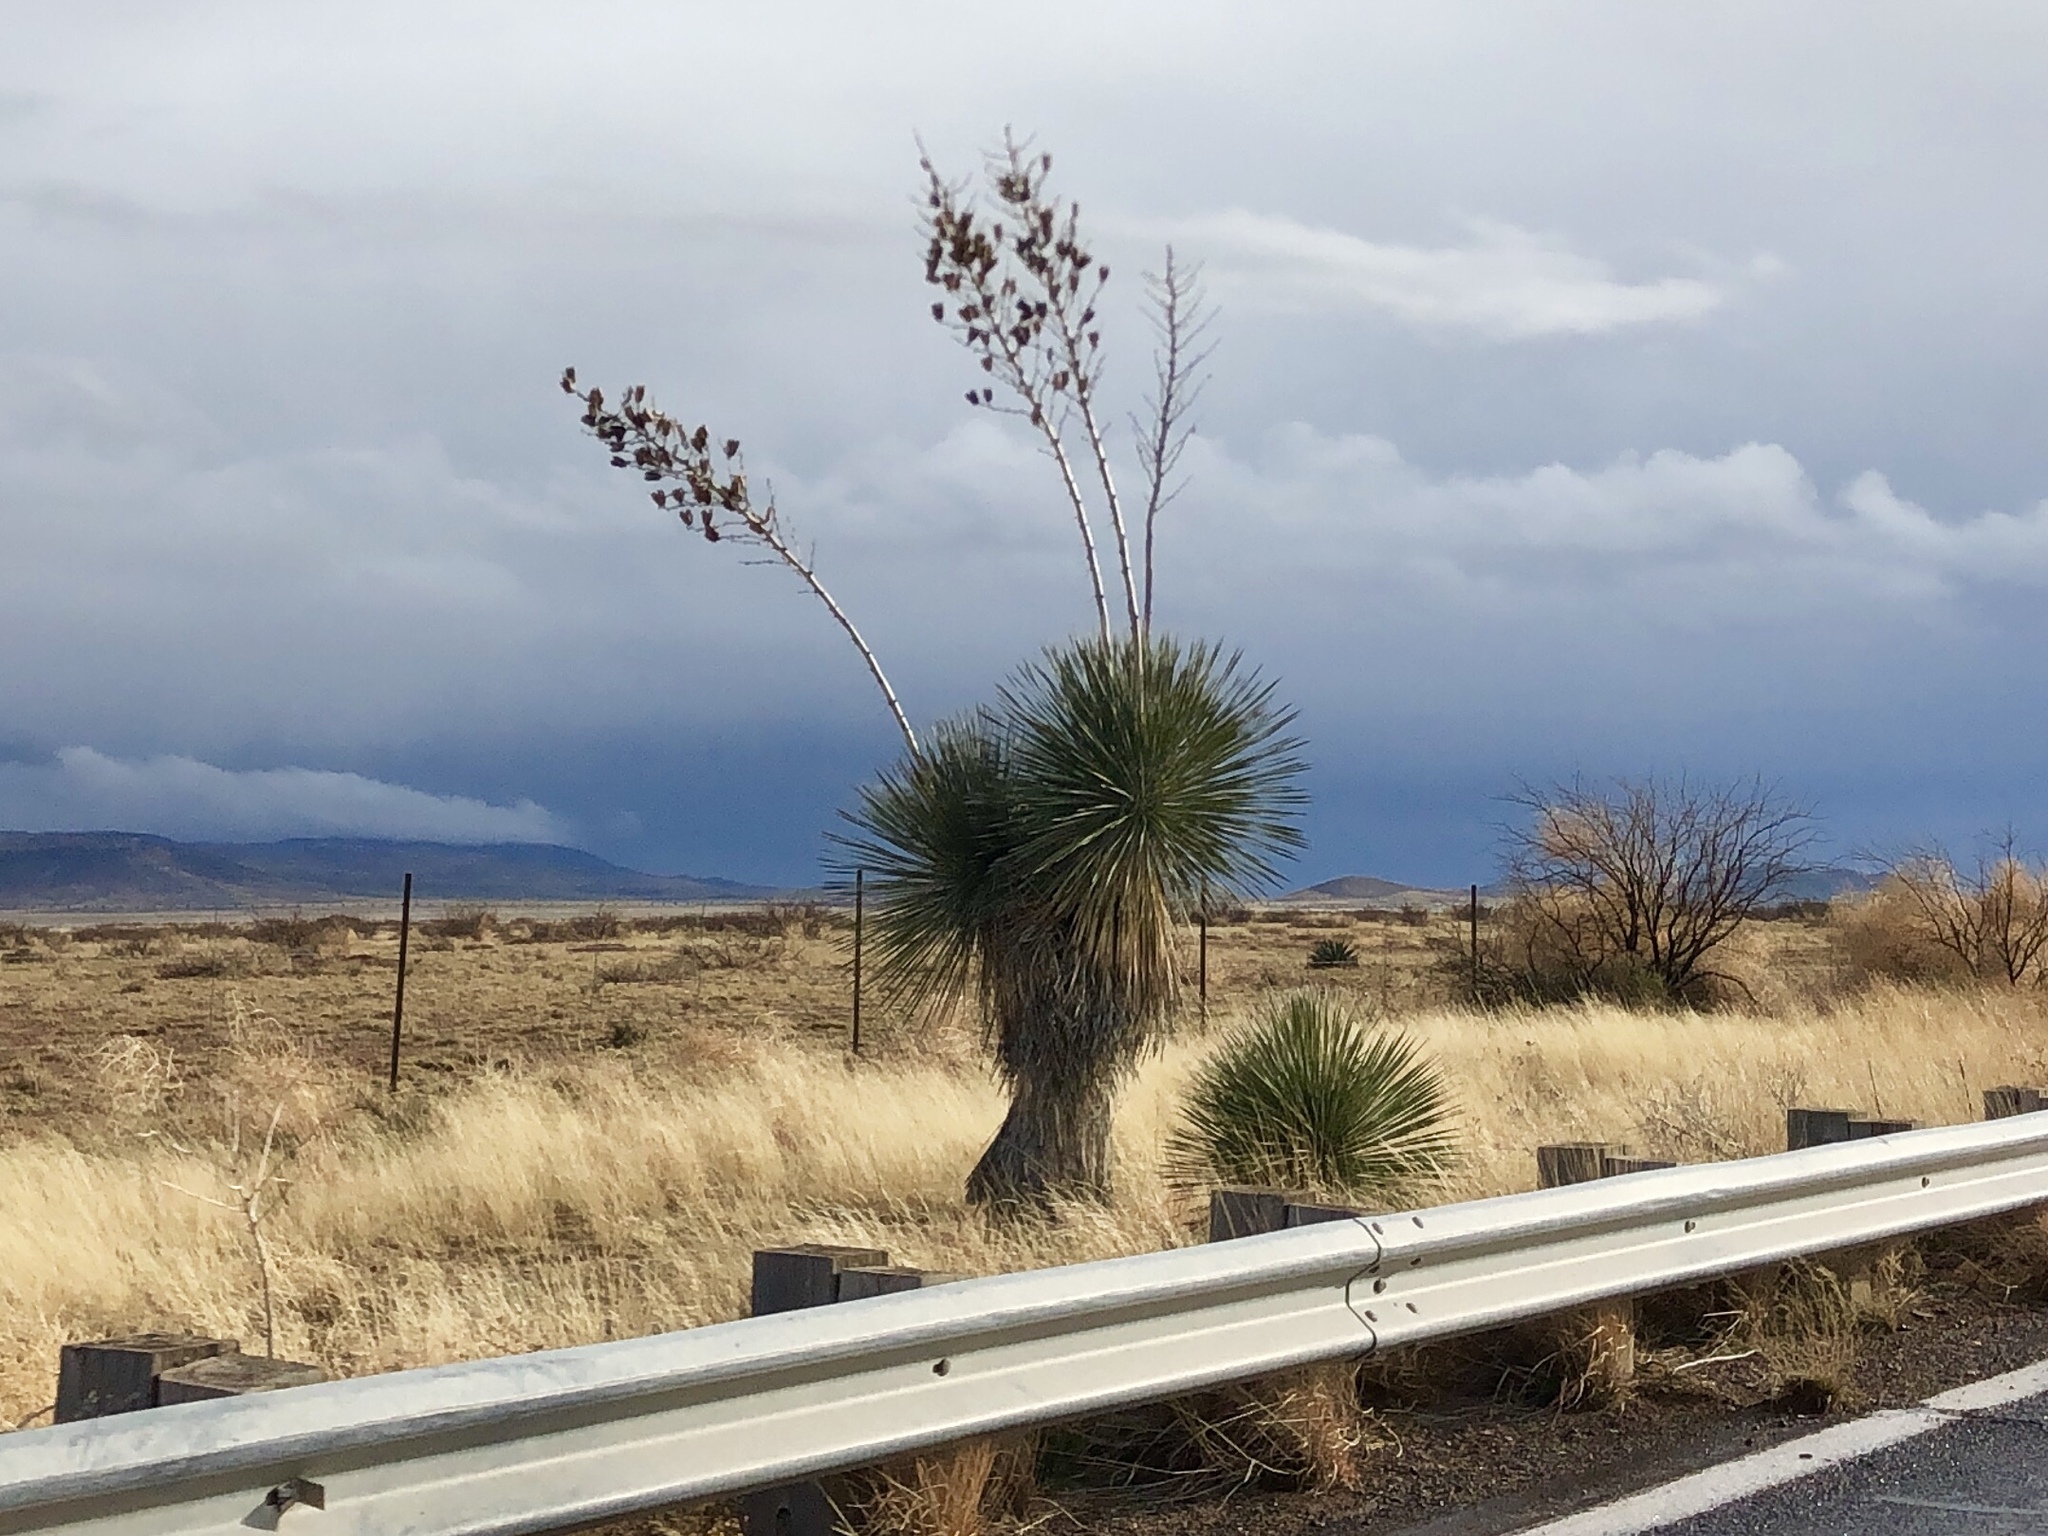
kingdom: Plantae
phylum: Tracheophyta
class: Liliopsida
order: Asparagales
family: Asparagaceae
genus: Yucca
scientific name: Yucca elata
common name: Palmella
